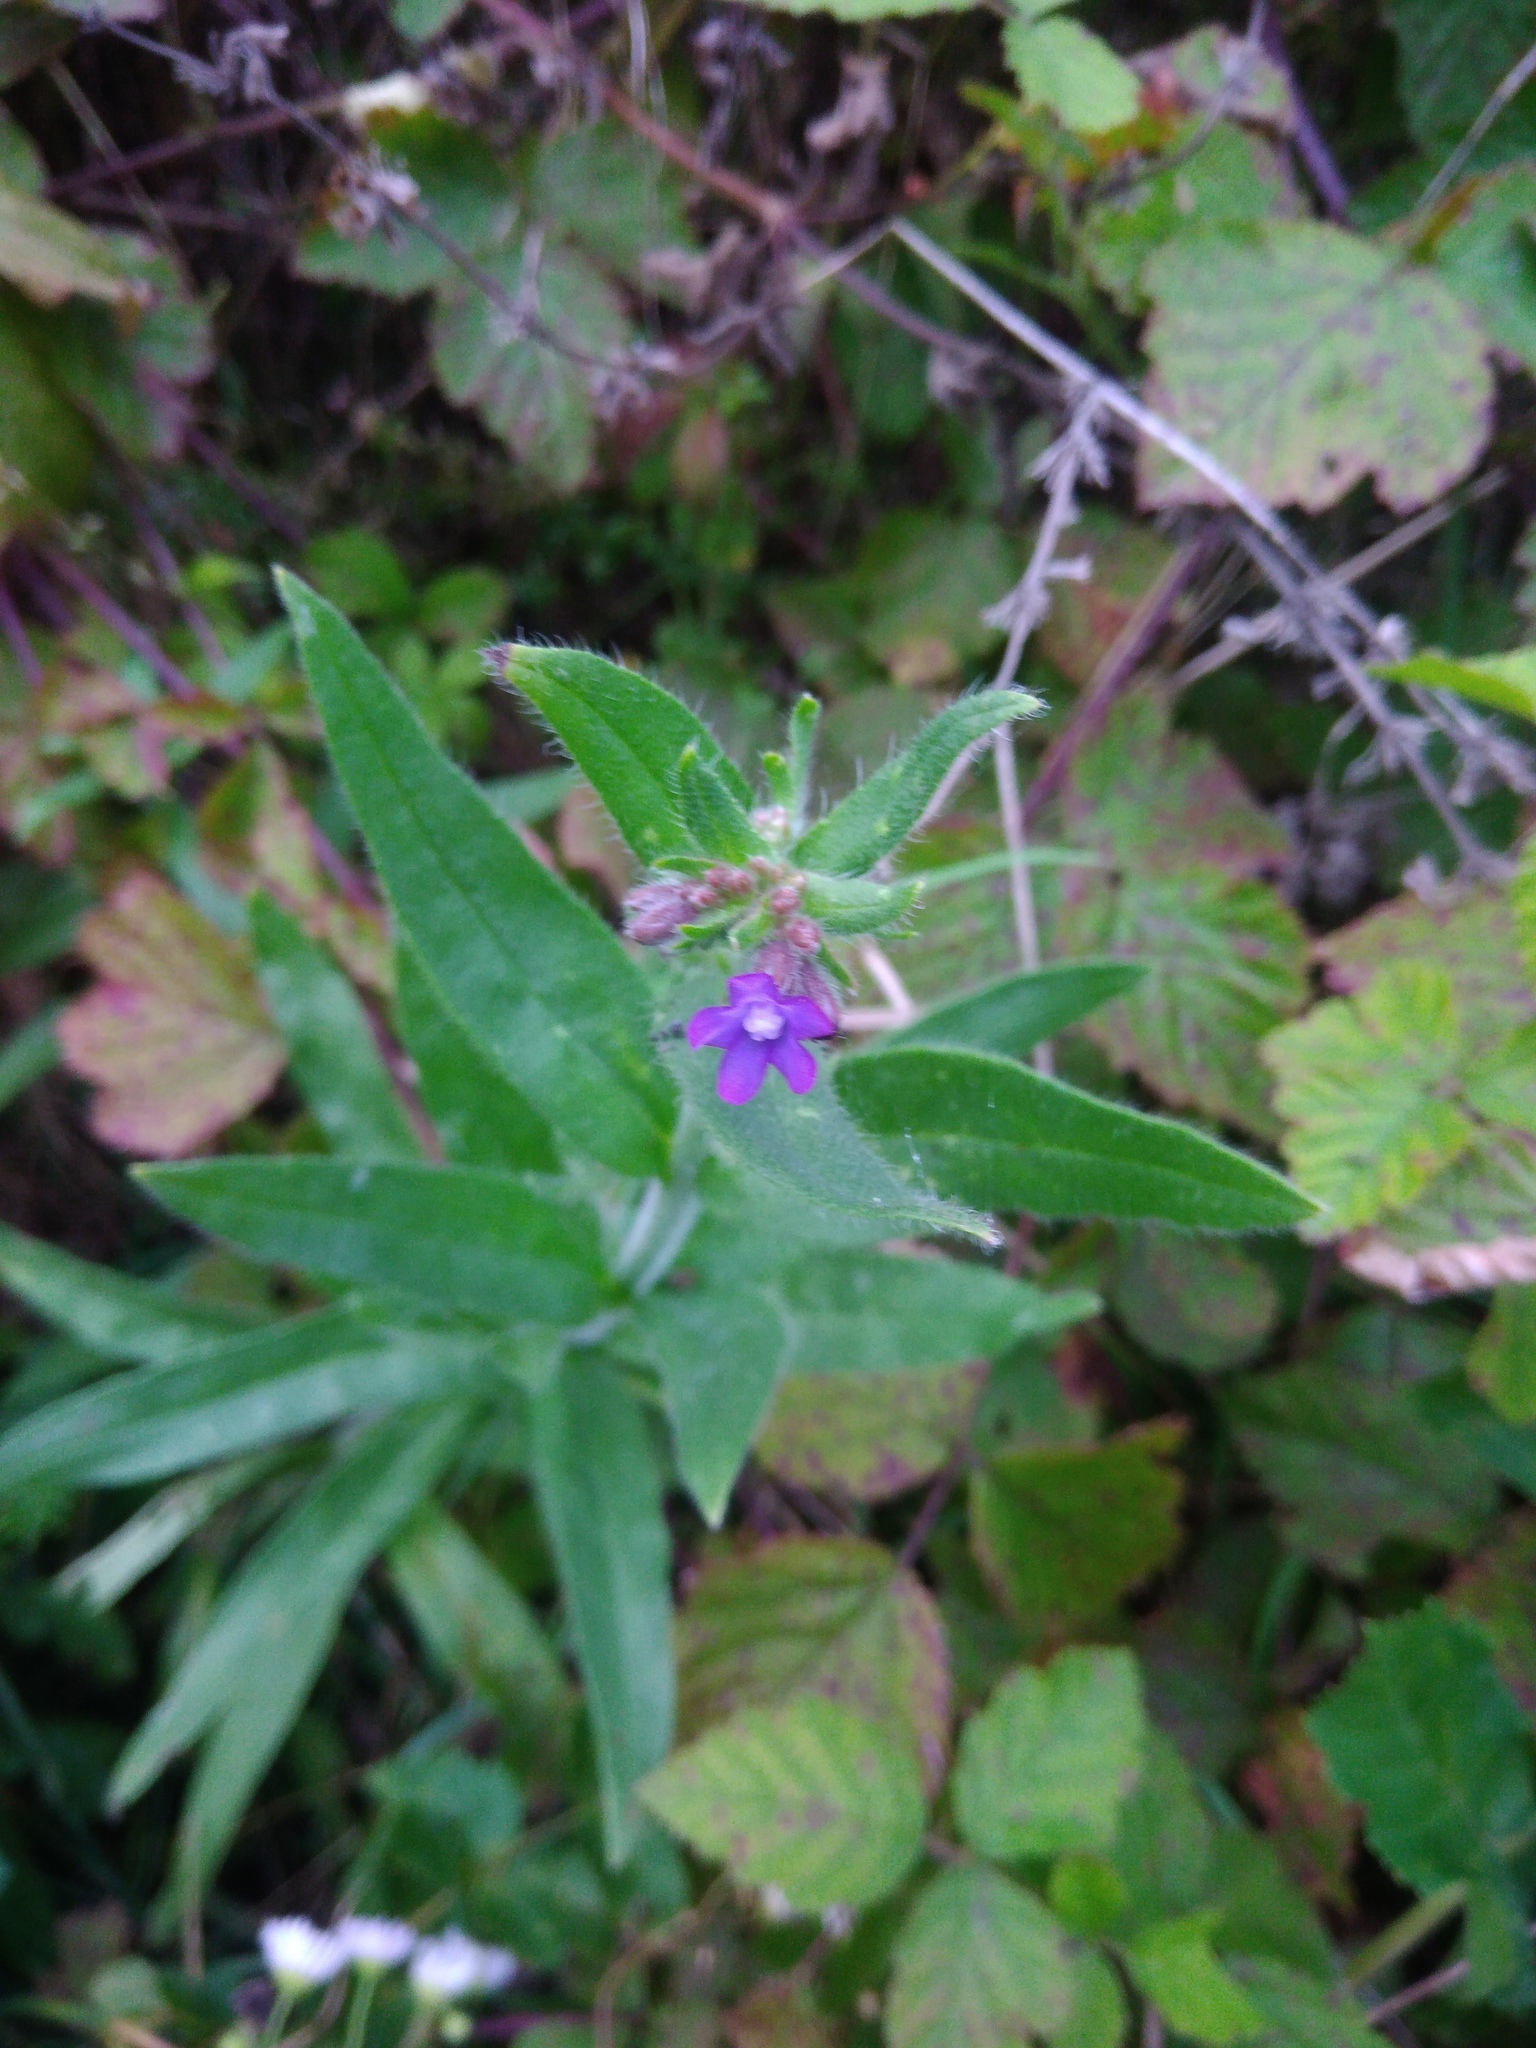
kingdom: Plantae
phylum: Tracheophyta
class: Magnoliopsida
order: Boraginales
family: Boraginaceae
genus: Anchusa
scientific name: Anchusa officinalis
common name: Alkanet
